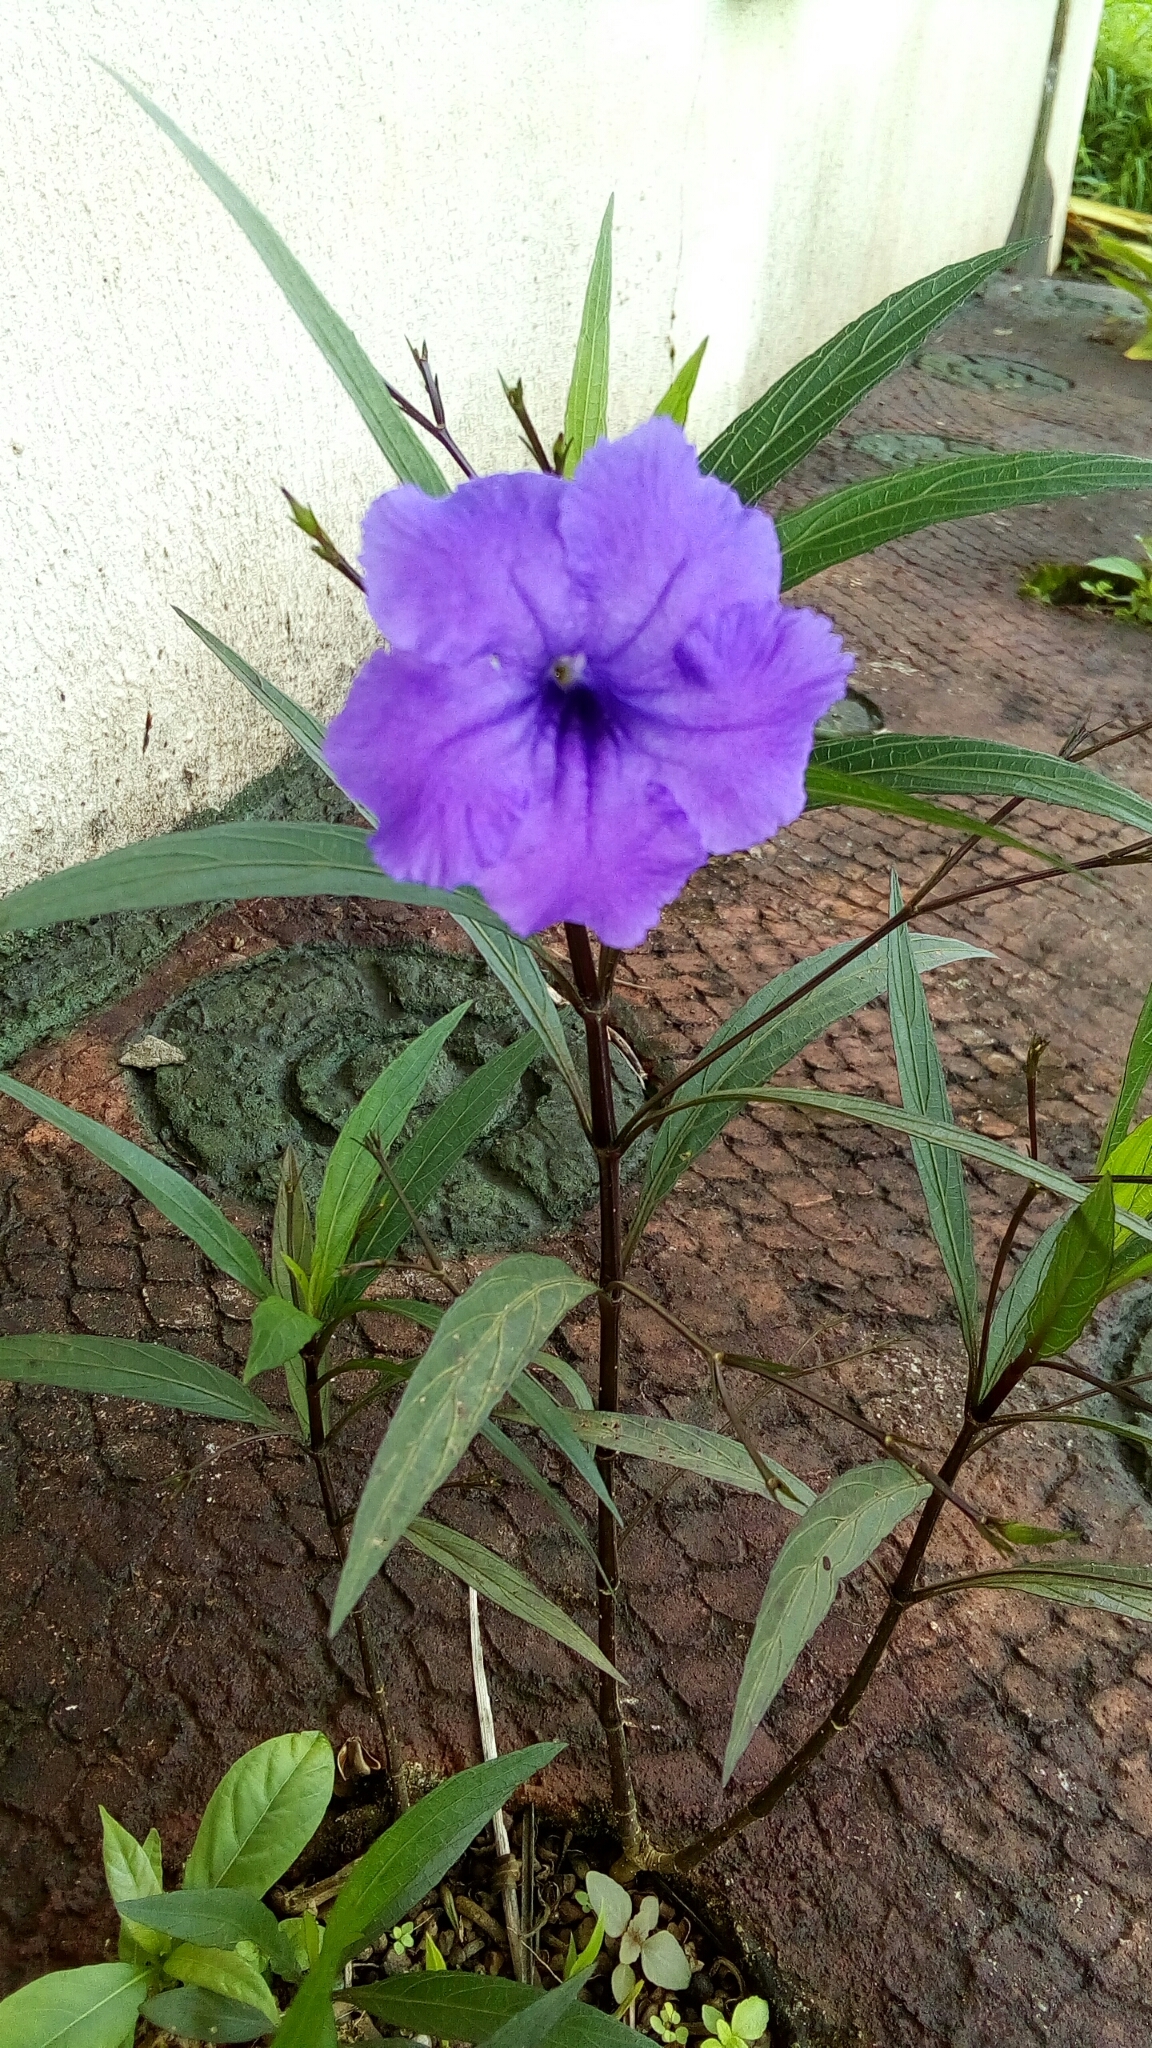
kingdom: Plantae
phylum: Tracheophyta
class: Magnoliopsida
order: Lamiales
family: Acanthaceae
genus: Ruellia
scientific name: Ruellia simplex
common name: Softseed wild petunia
